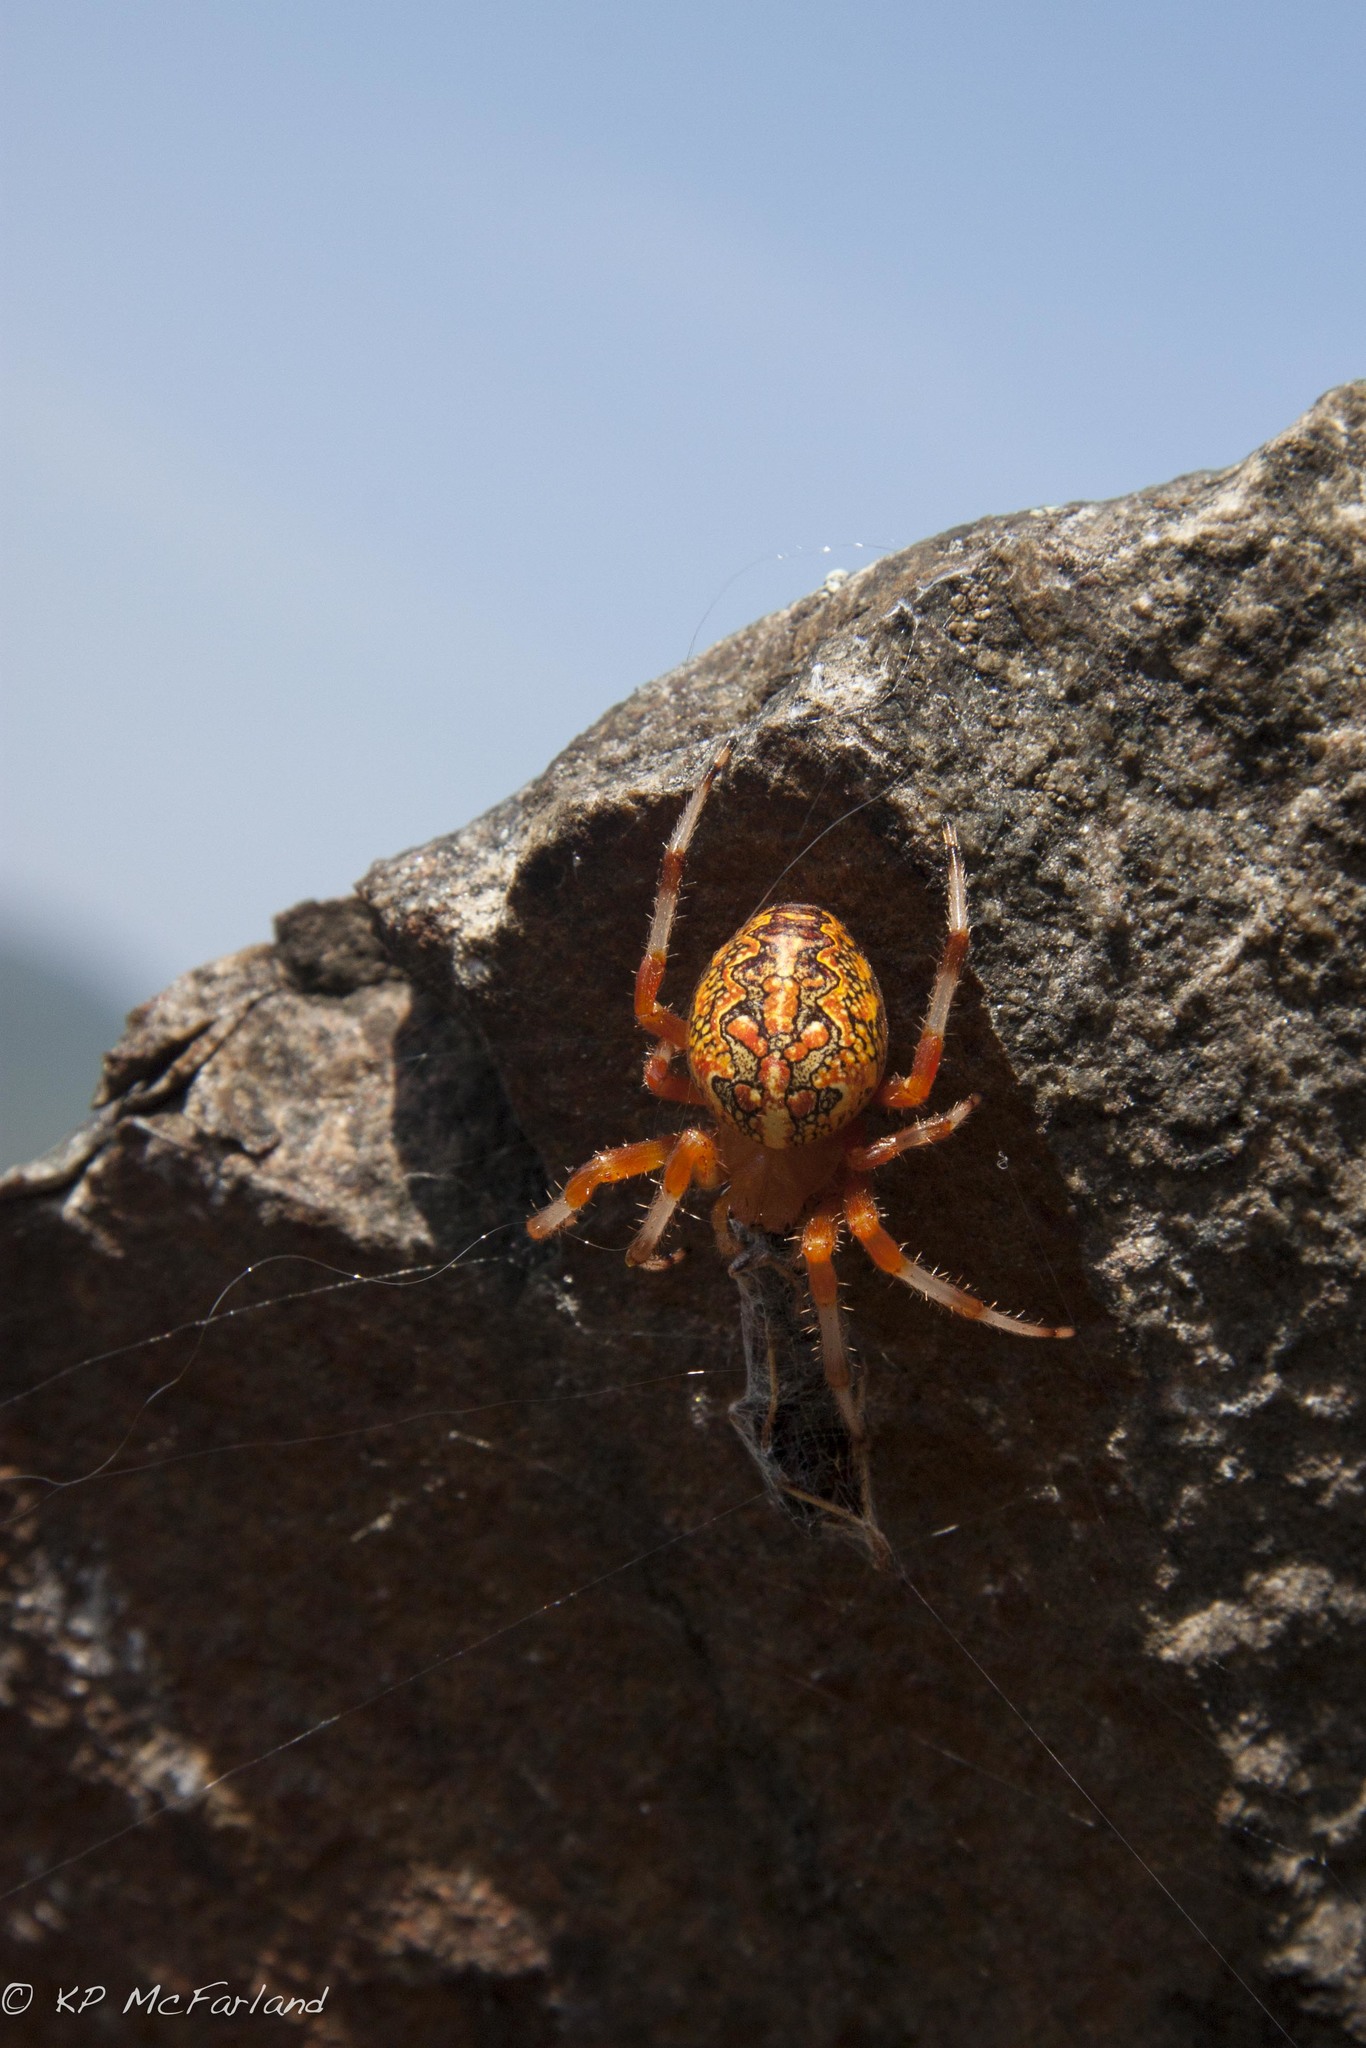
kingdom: Animalia
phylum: Arthropoda
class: Arachnida
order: Araneae
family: Araneidae
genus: Araneus
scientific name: Araneus marmoreus
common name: Marbled orbweaver
